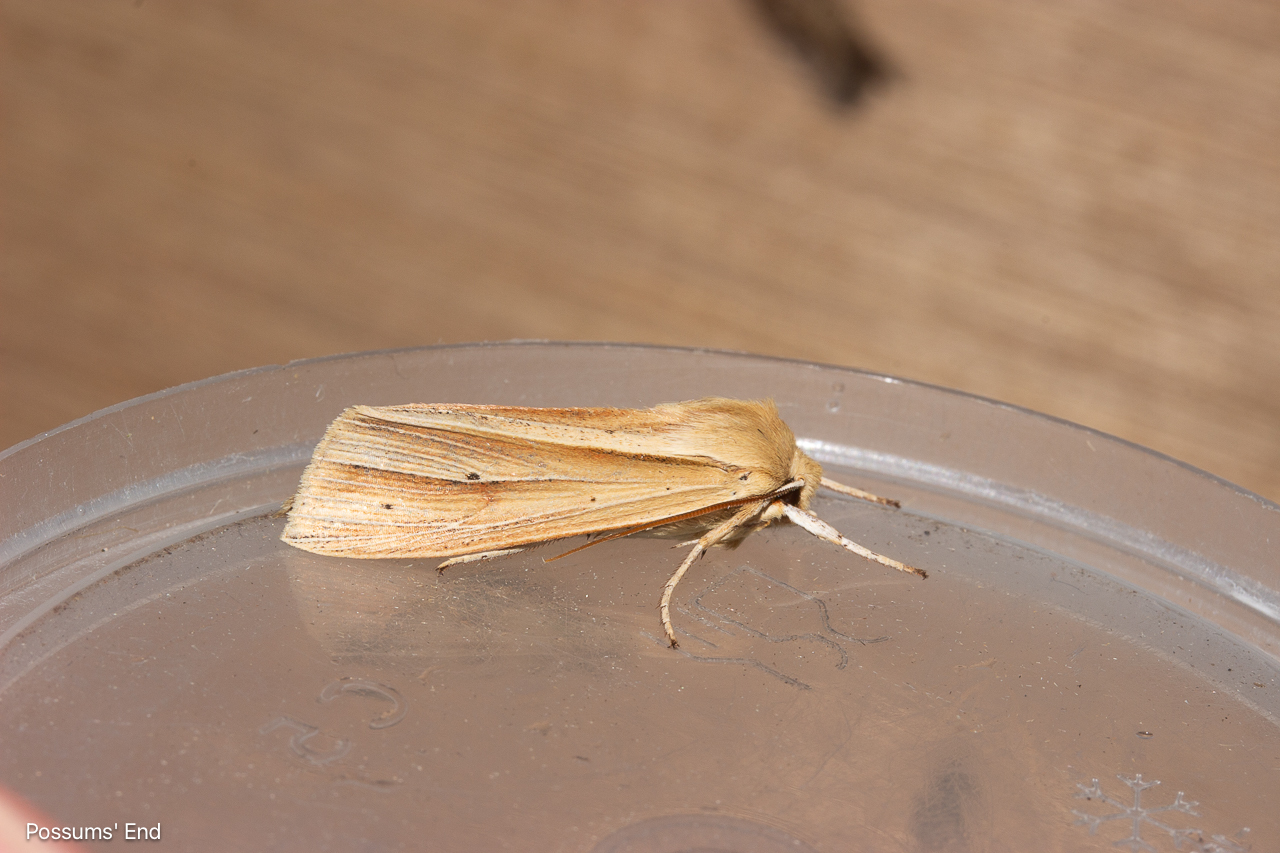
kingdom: Animalia
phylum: Arthropoda
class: Insecta
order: Lepidoptera
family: Noctuidae
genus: Ichneutica
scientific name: Ichneutica sulcana
